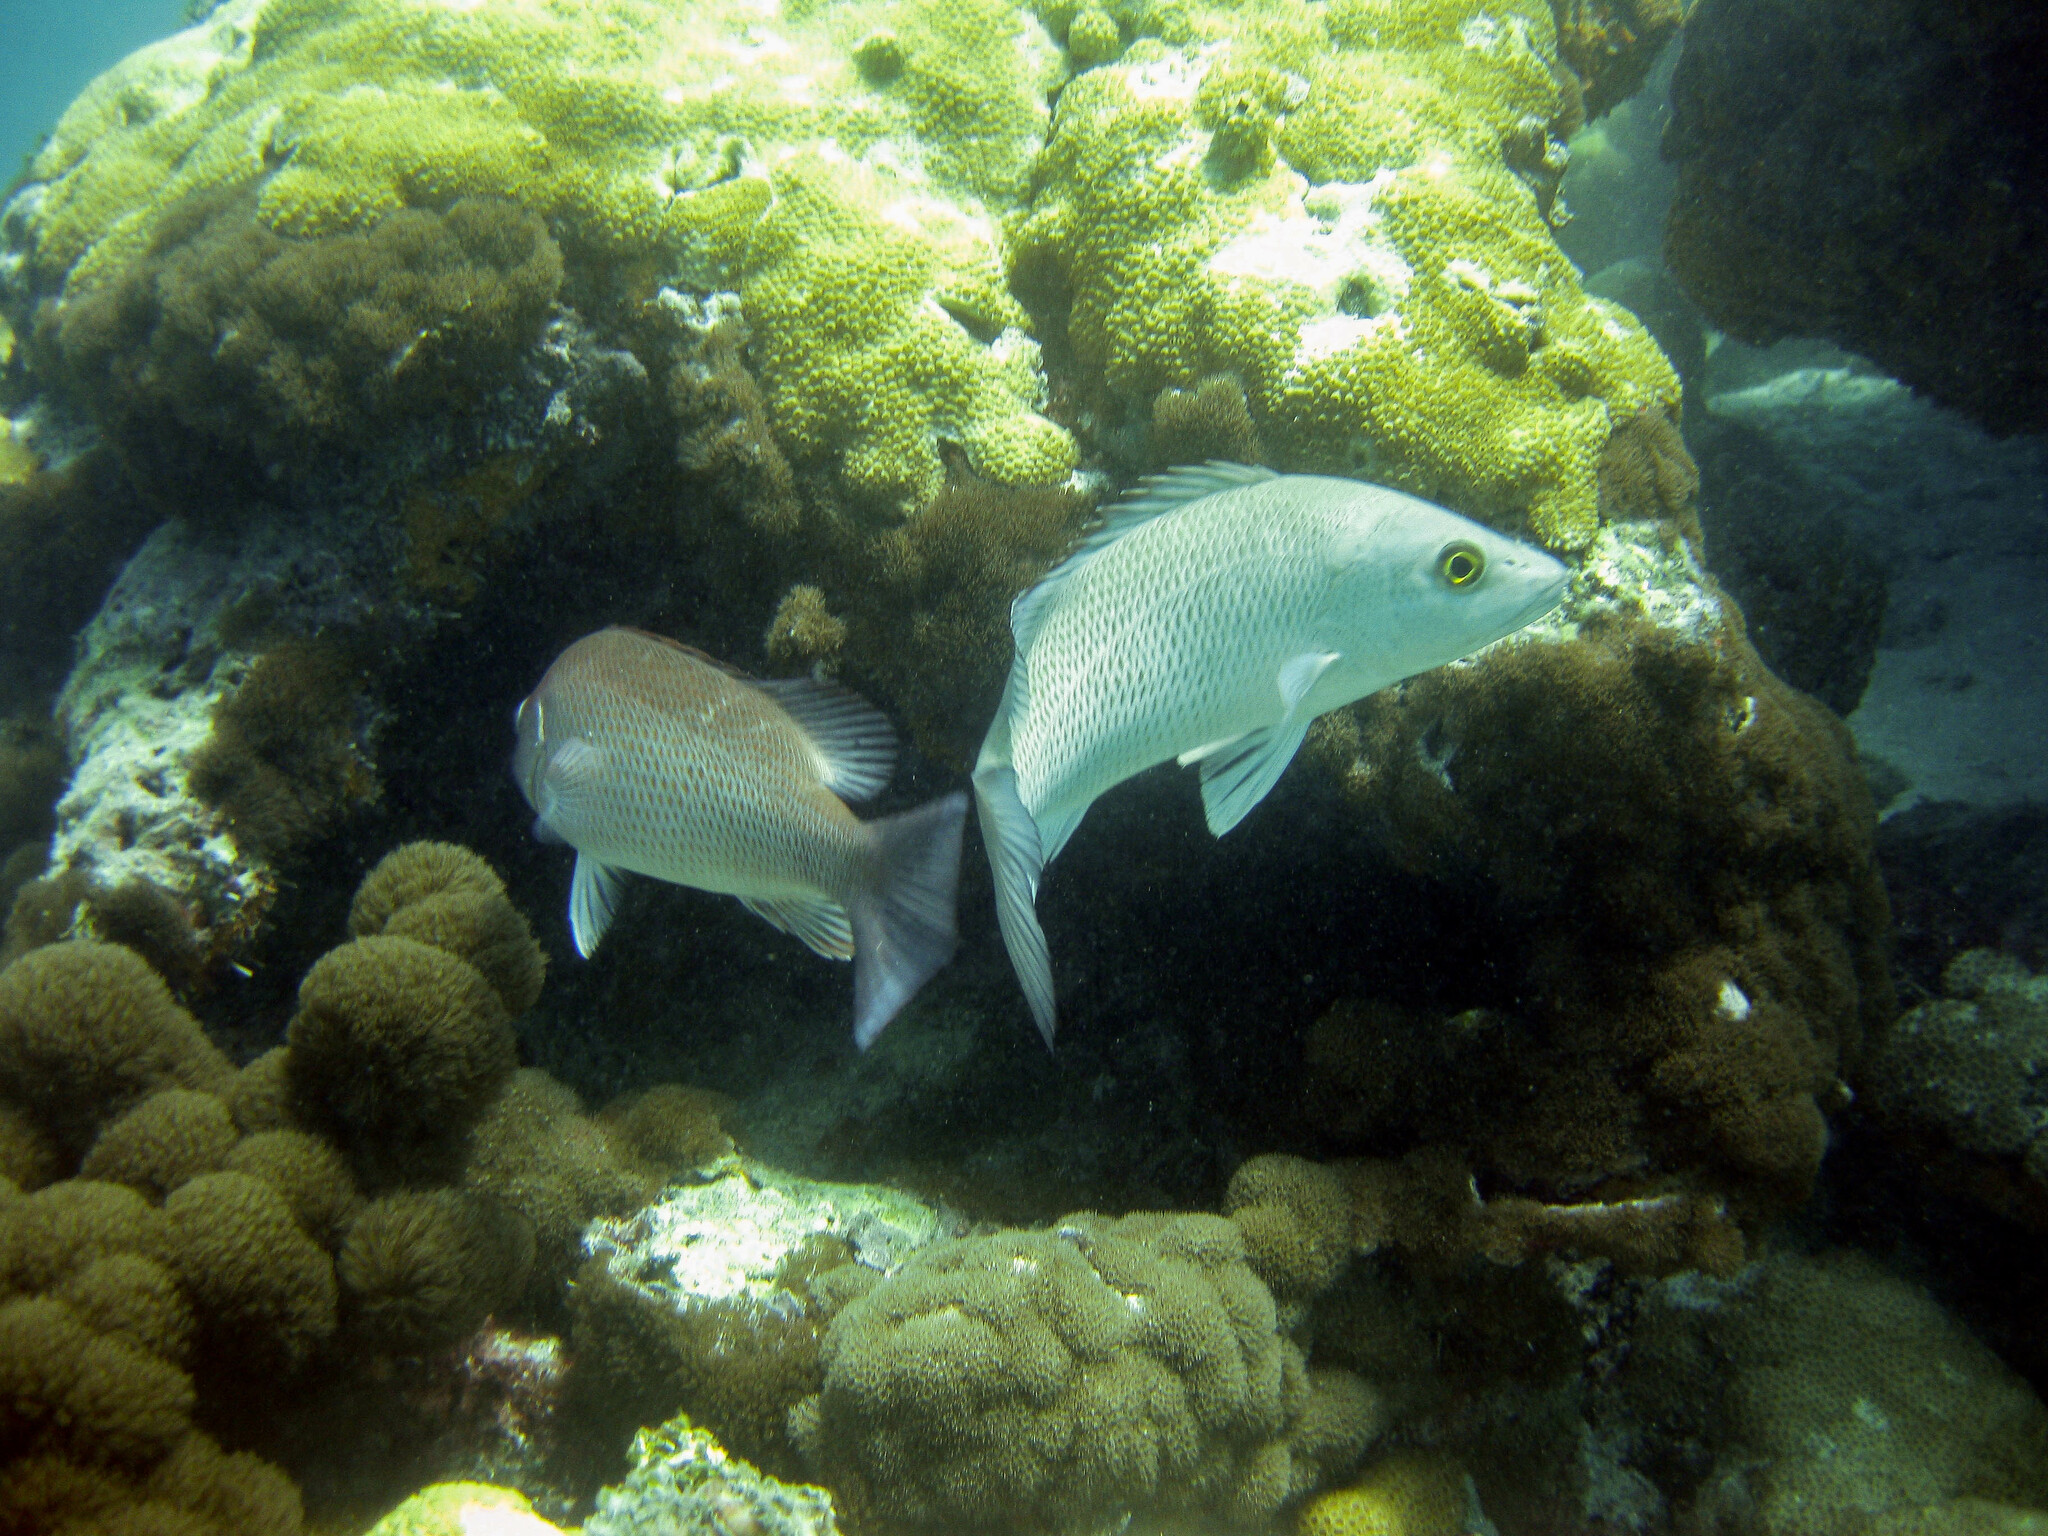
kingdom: Animalia
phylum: Chordata
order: Perciformes
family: Lutjanidae
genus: Lutjanus
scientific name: Lutjanus griseus
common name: Gray snapper
